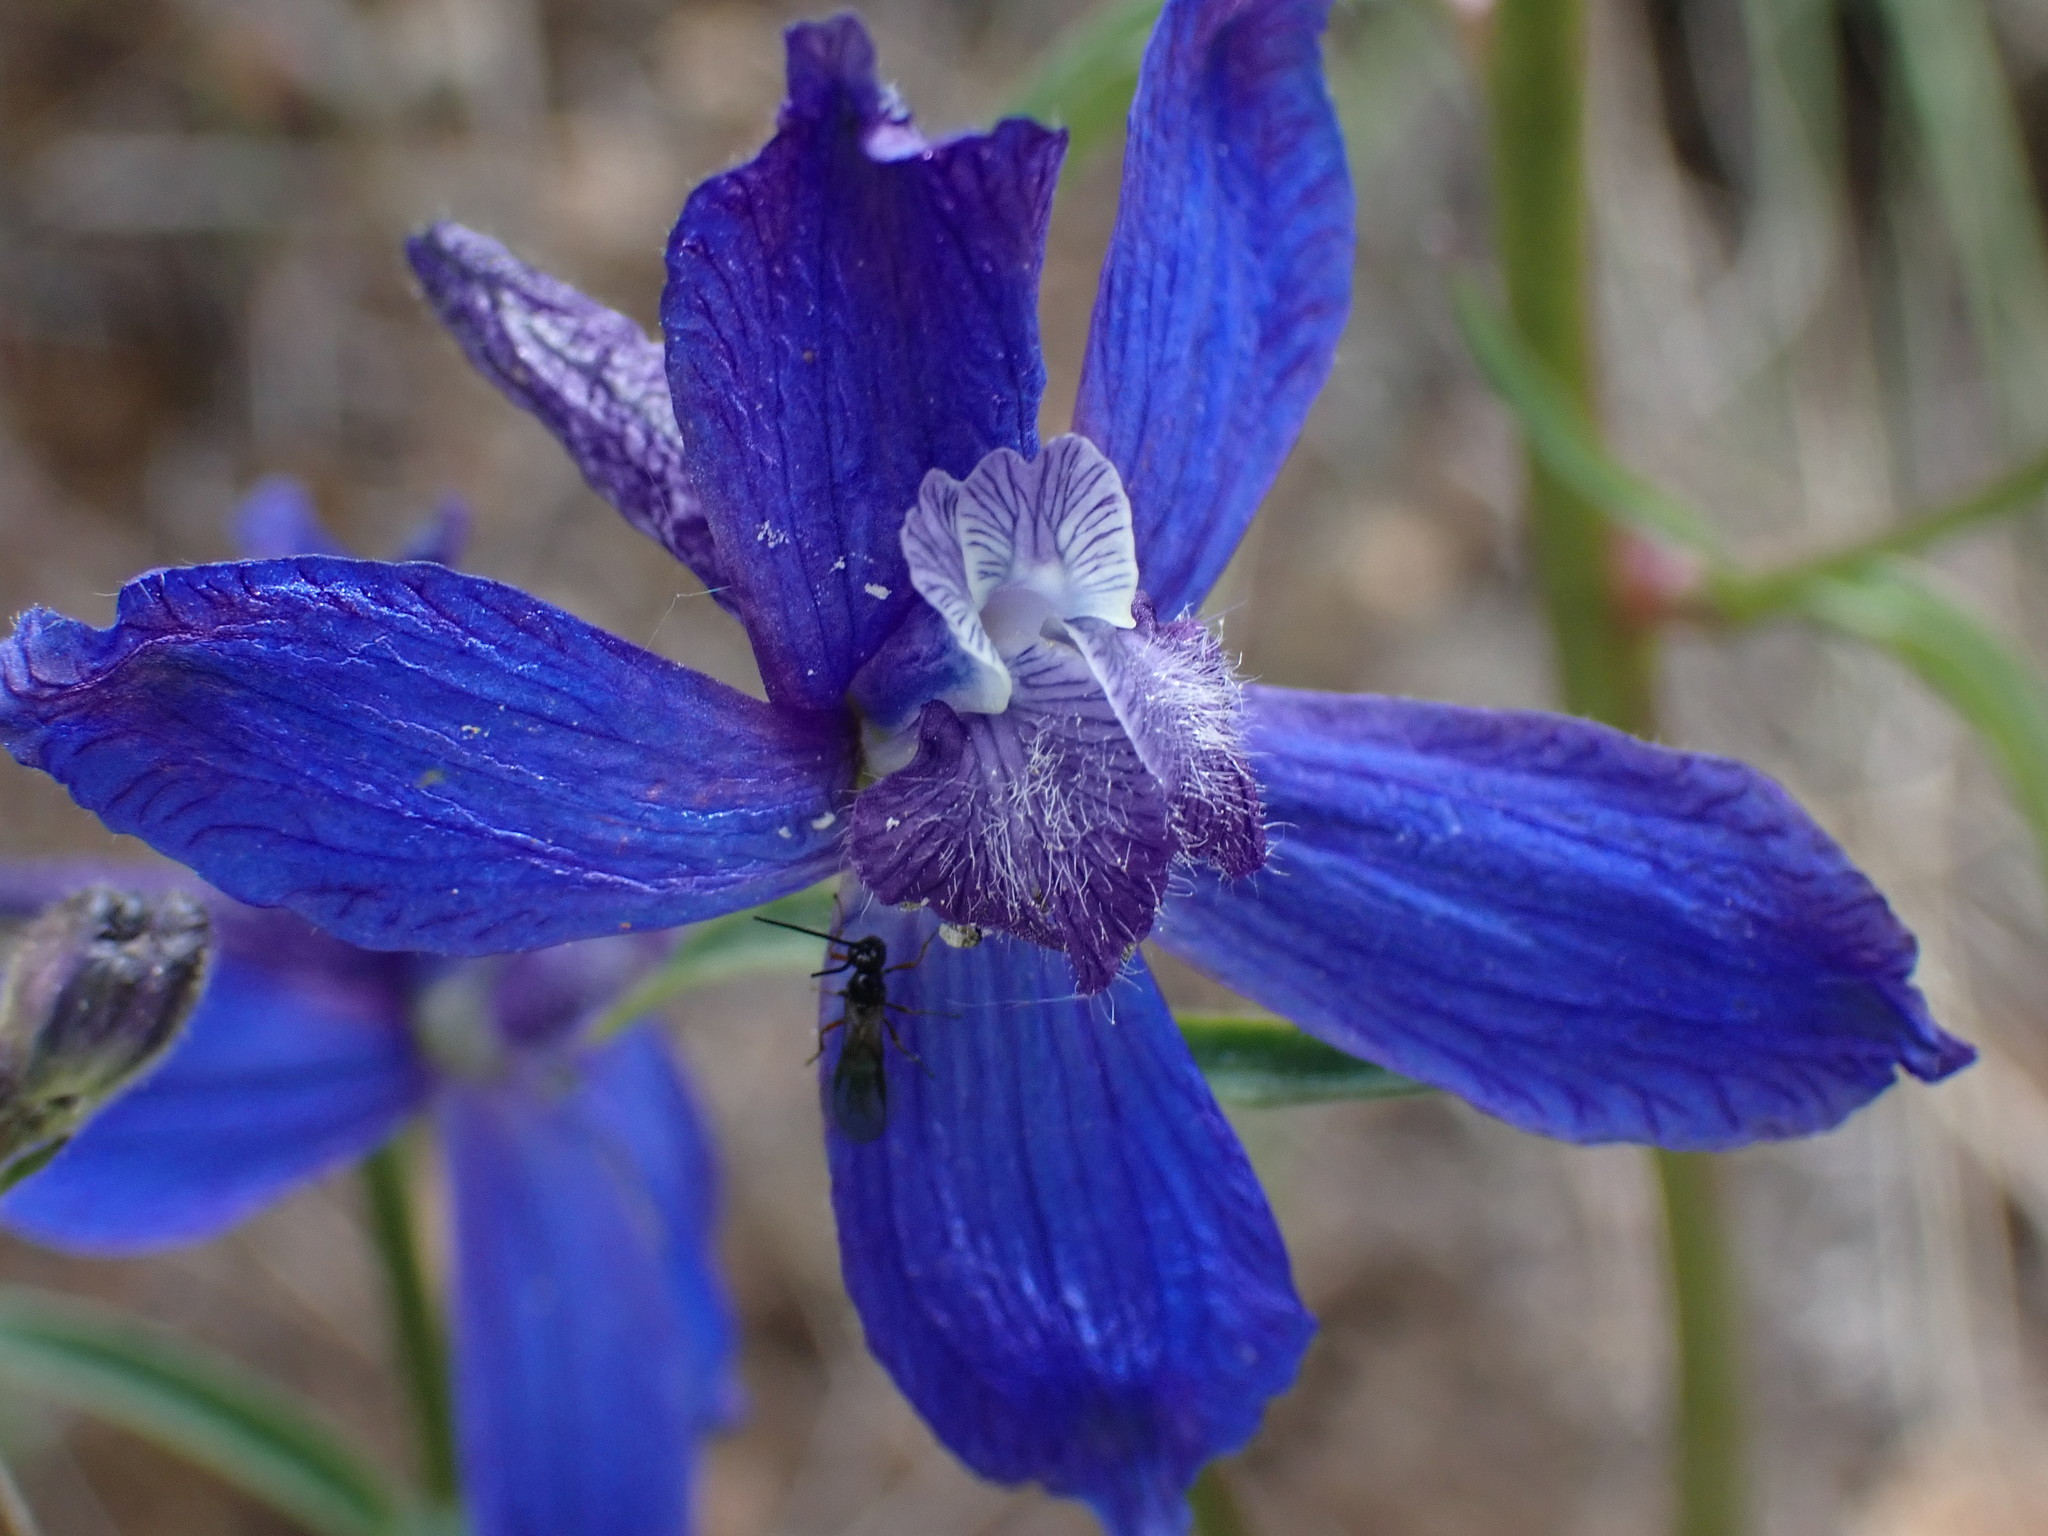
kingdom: Plantae
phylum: Tracheophyta
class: Magnoliopsida
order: Ranunculales
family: Ranunculaceae
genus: Delphinium
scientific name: Delphinium nuttallianum
